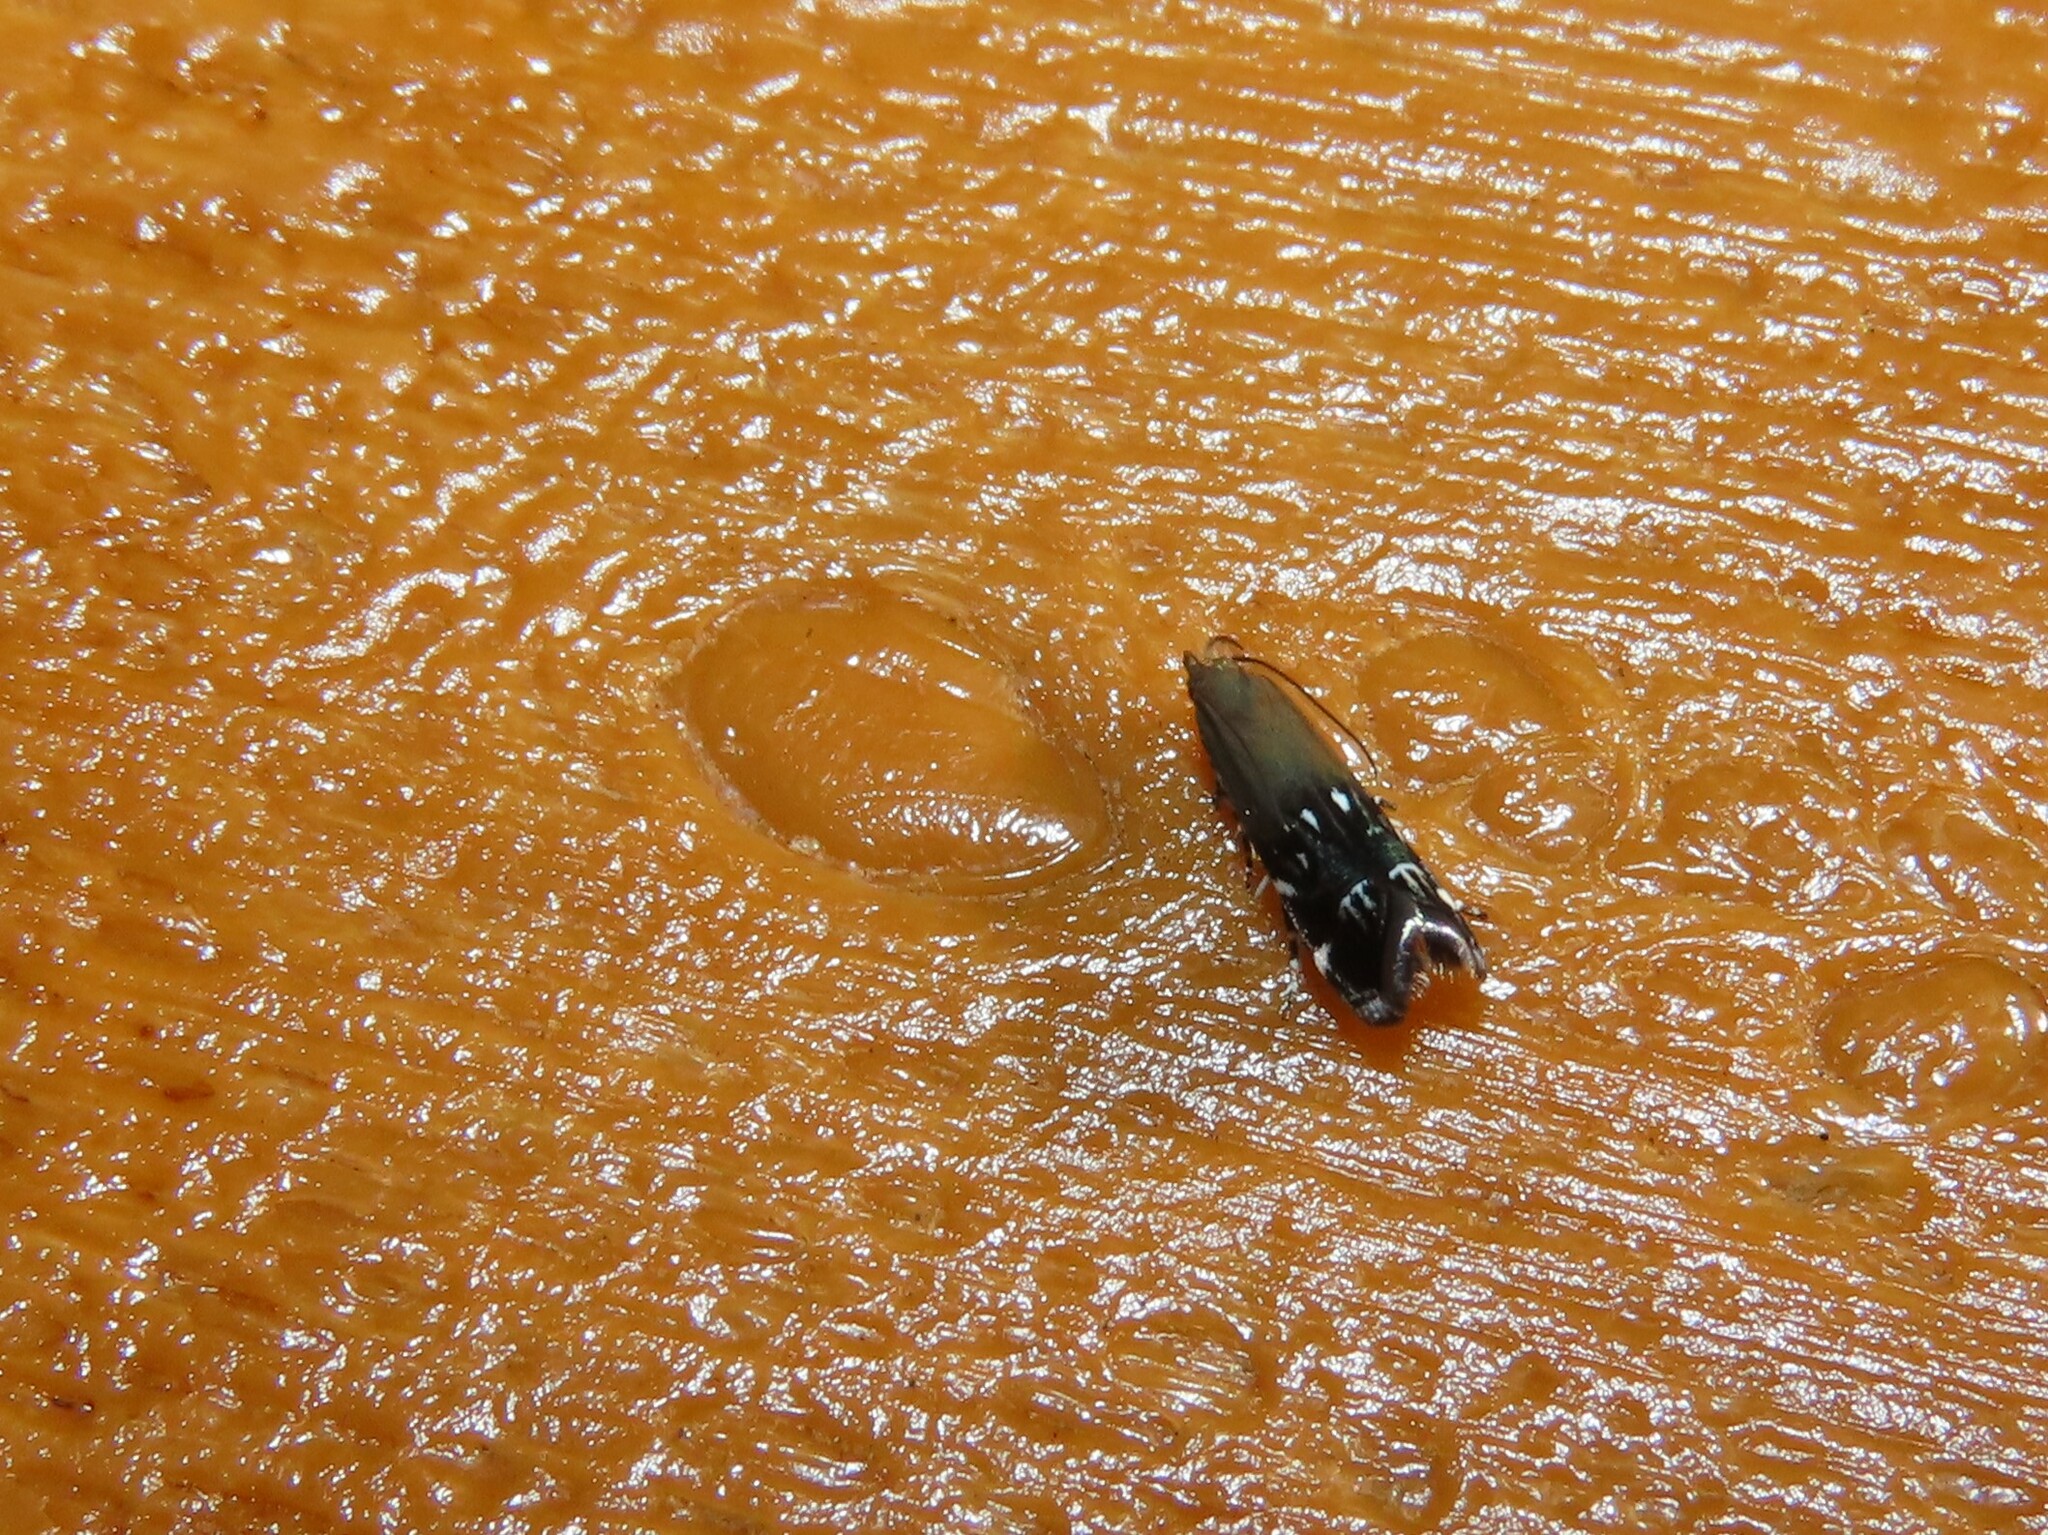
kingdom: Animalia
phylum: Arthropoda
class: Insecta
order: Lepidoptera
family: Gelechiidae
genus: Anacampsis
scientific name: Anacampsis levipedella
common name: Silver-dashed anacampsis
